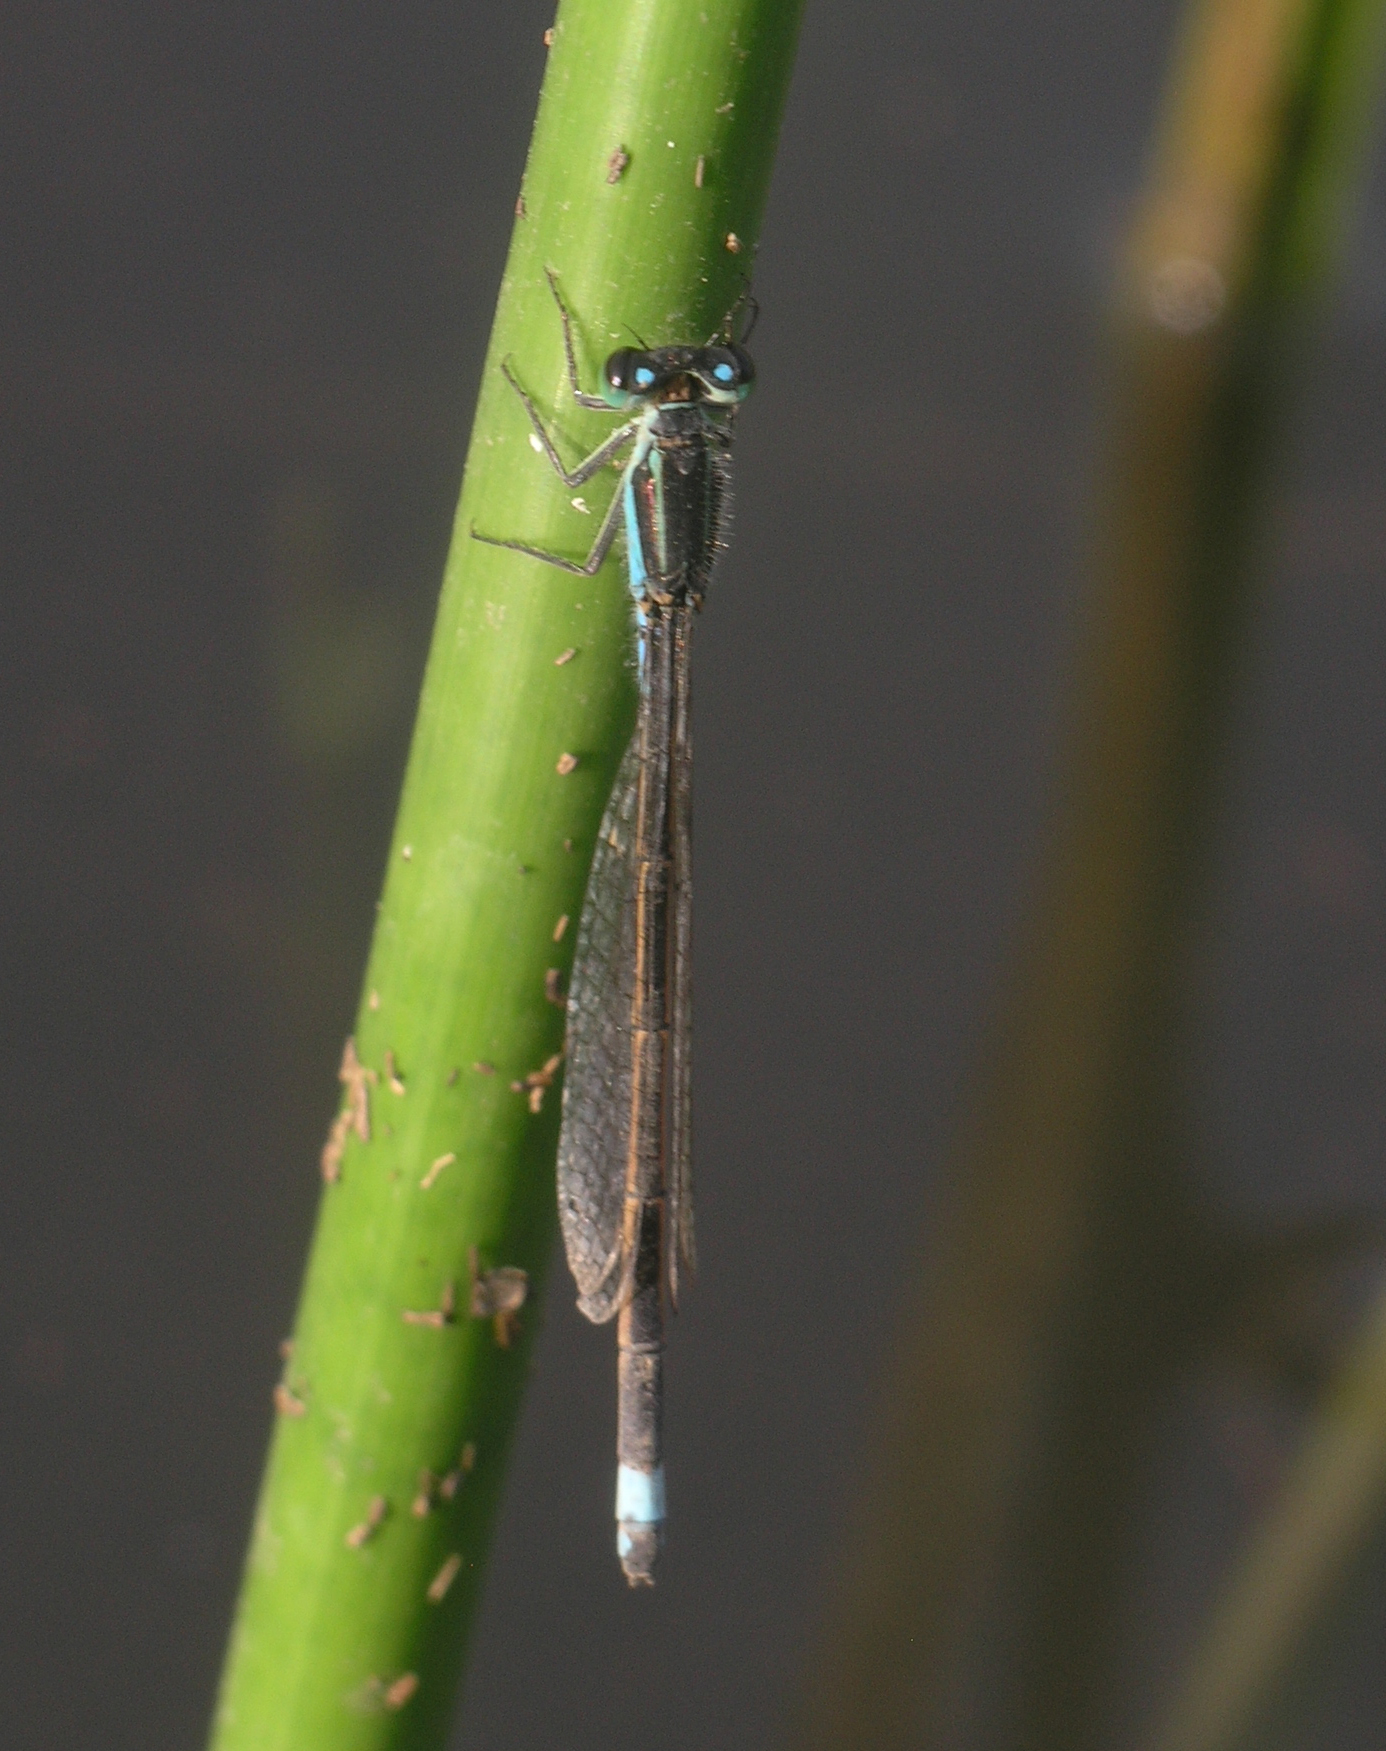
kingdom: Animalia
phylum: Arthropoda
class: Insecta
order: Odonata
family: Coenagrionidae
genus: Ischnura
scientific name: Ischnura senegalensis
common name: Tropical bluetail
